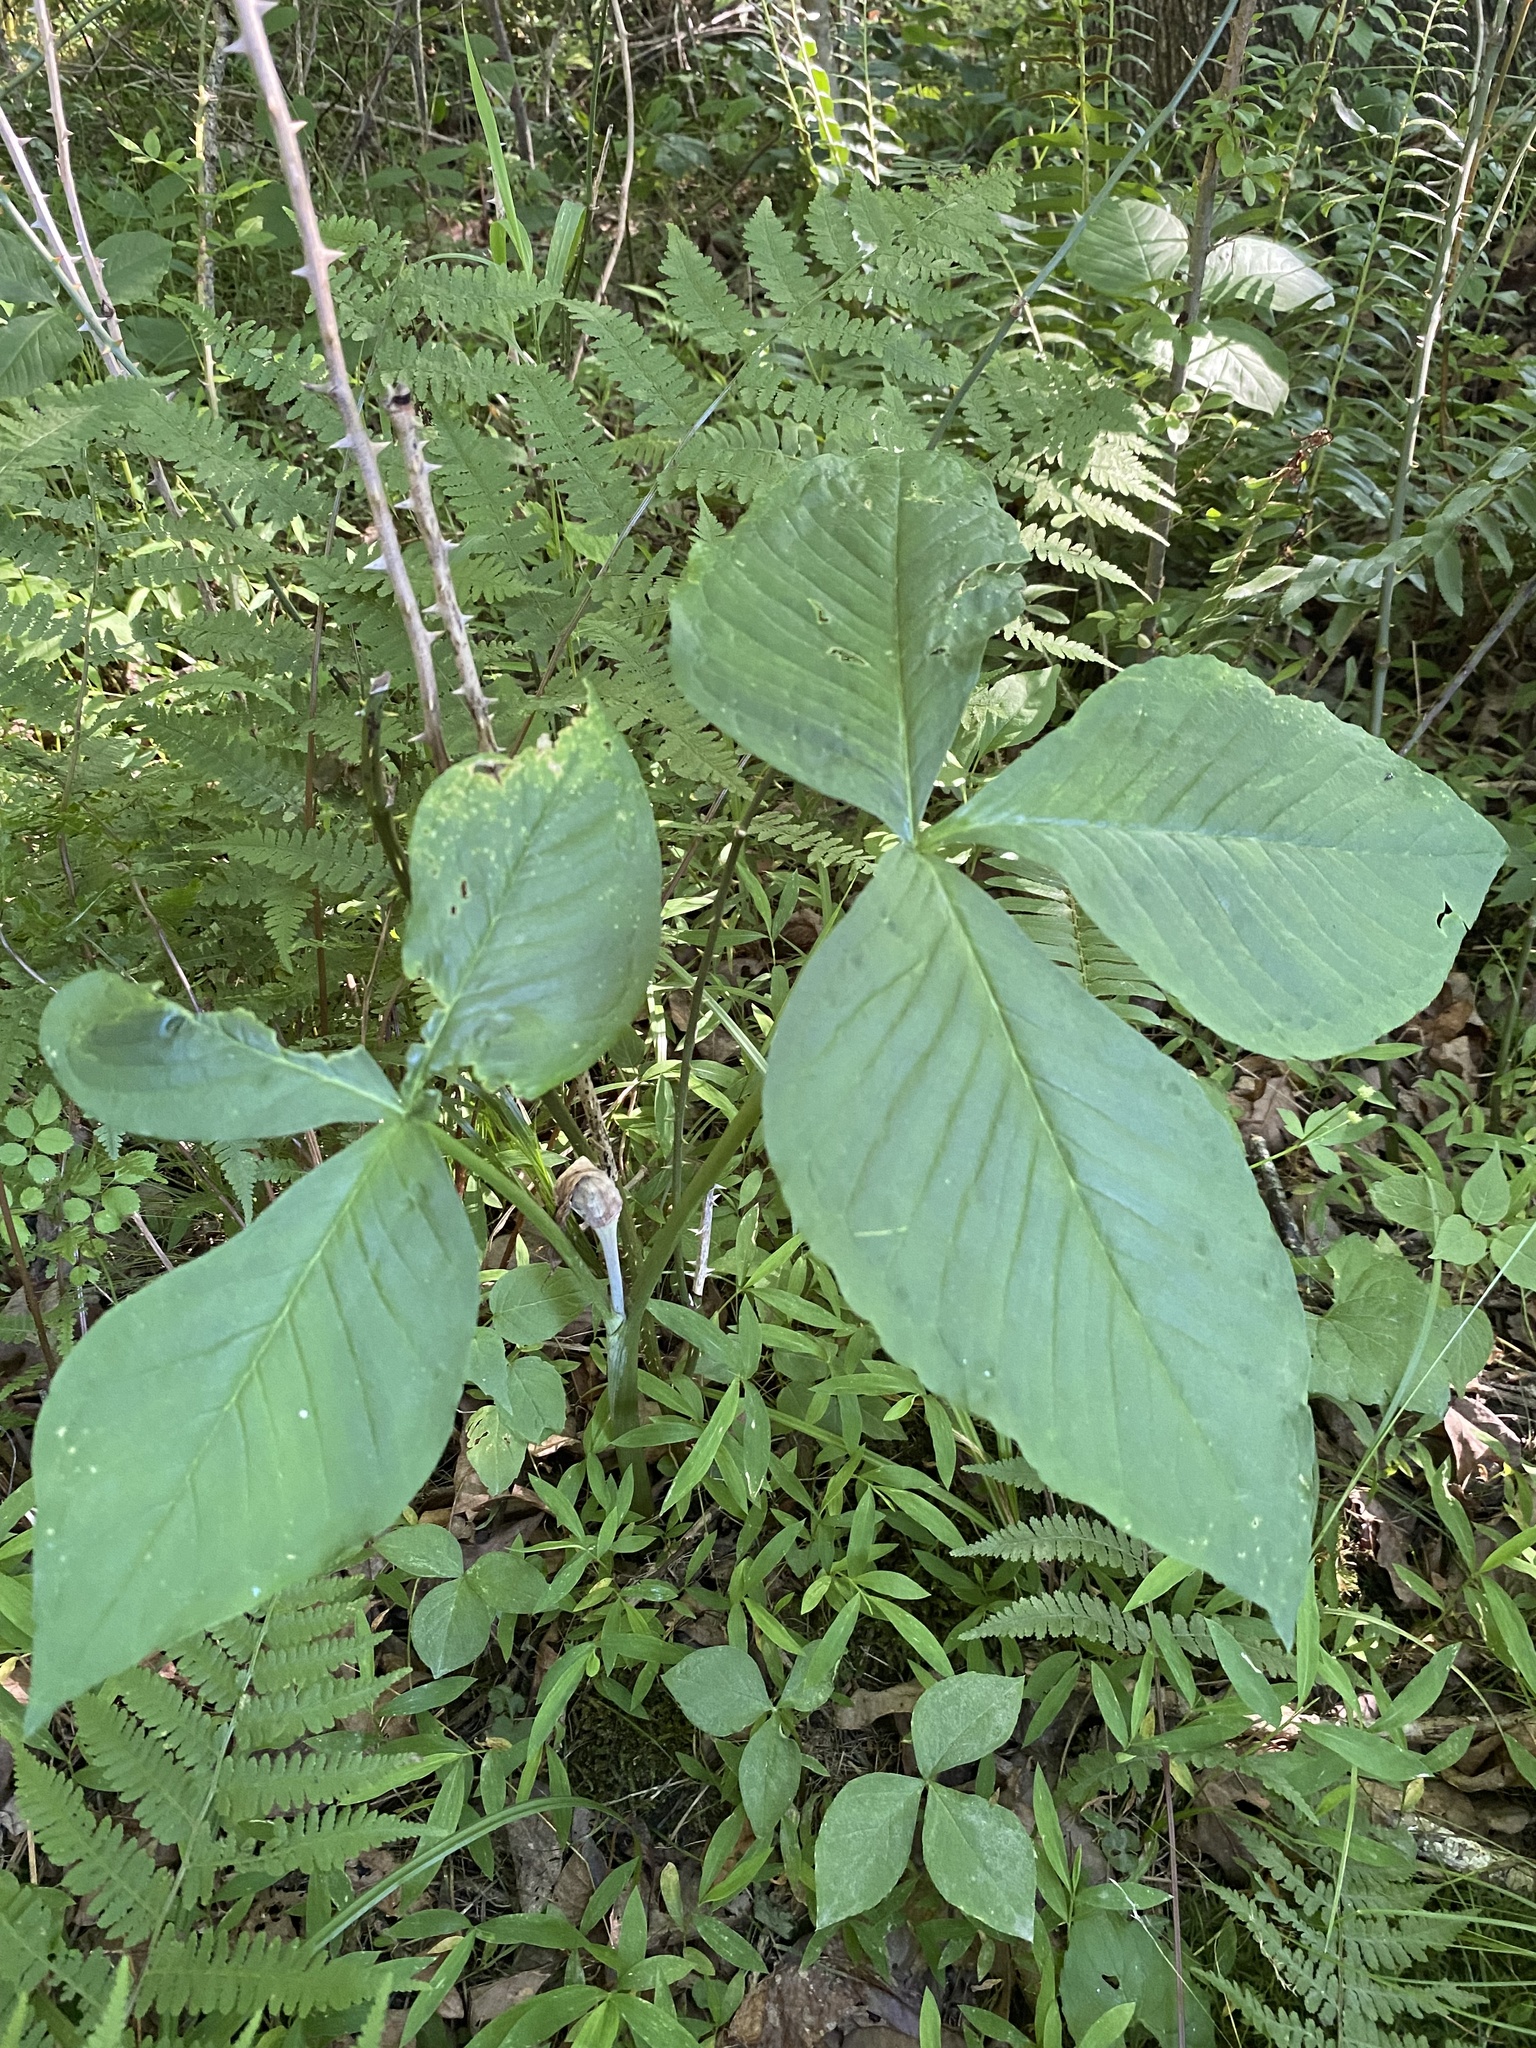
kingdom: Plantae
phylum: Tracheophyta
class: Liliopsida
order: Alismatales
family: Araceae
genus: Arisaema
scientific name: Arisaema triphyllum
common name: Jack-in-the-pulpit
